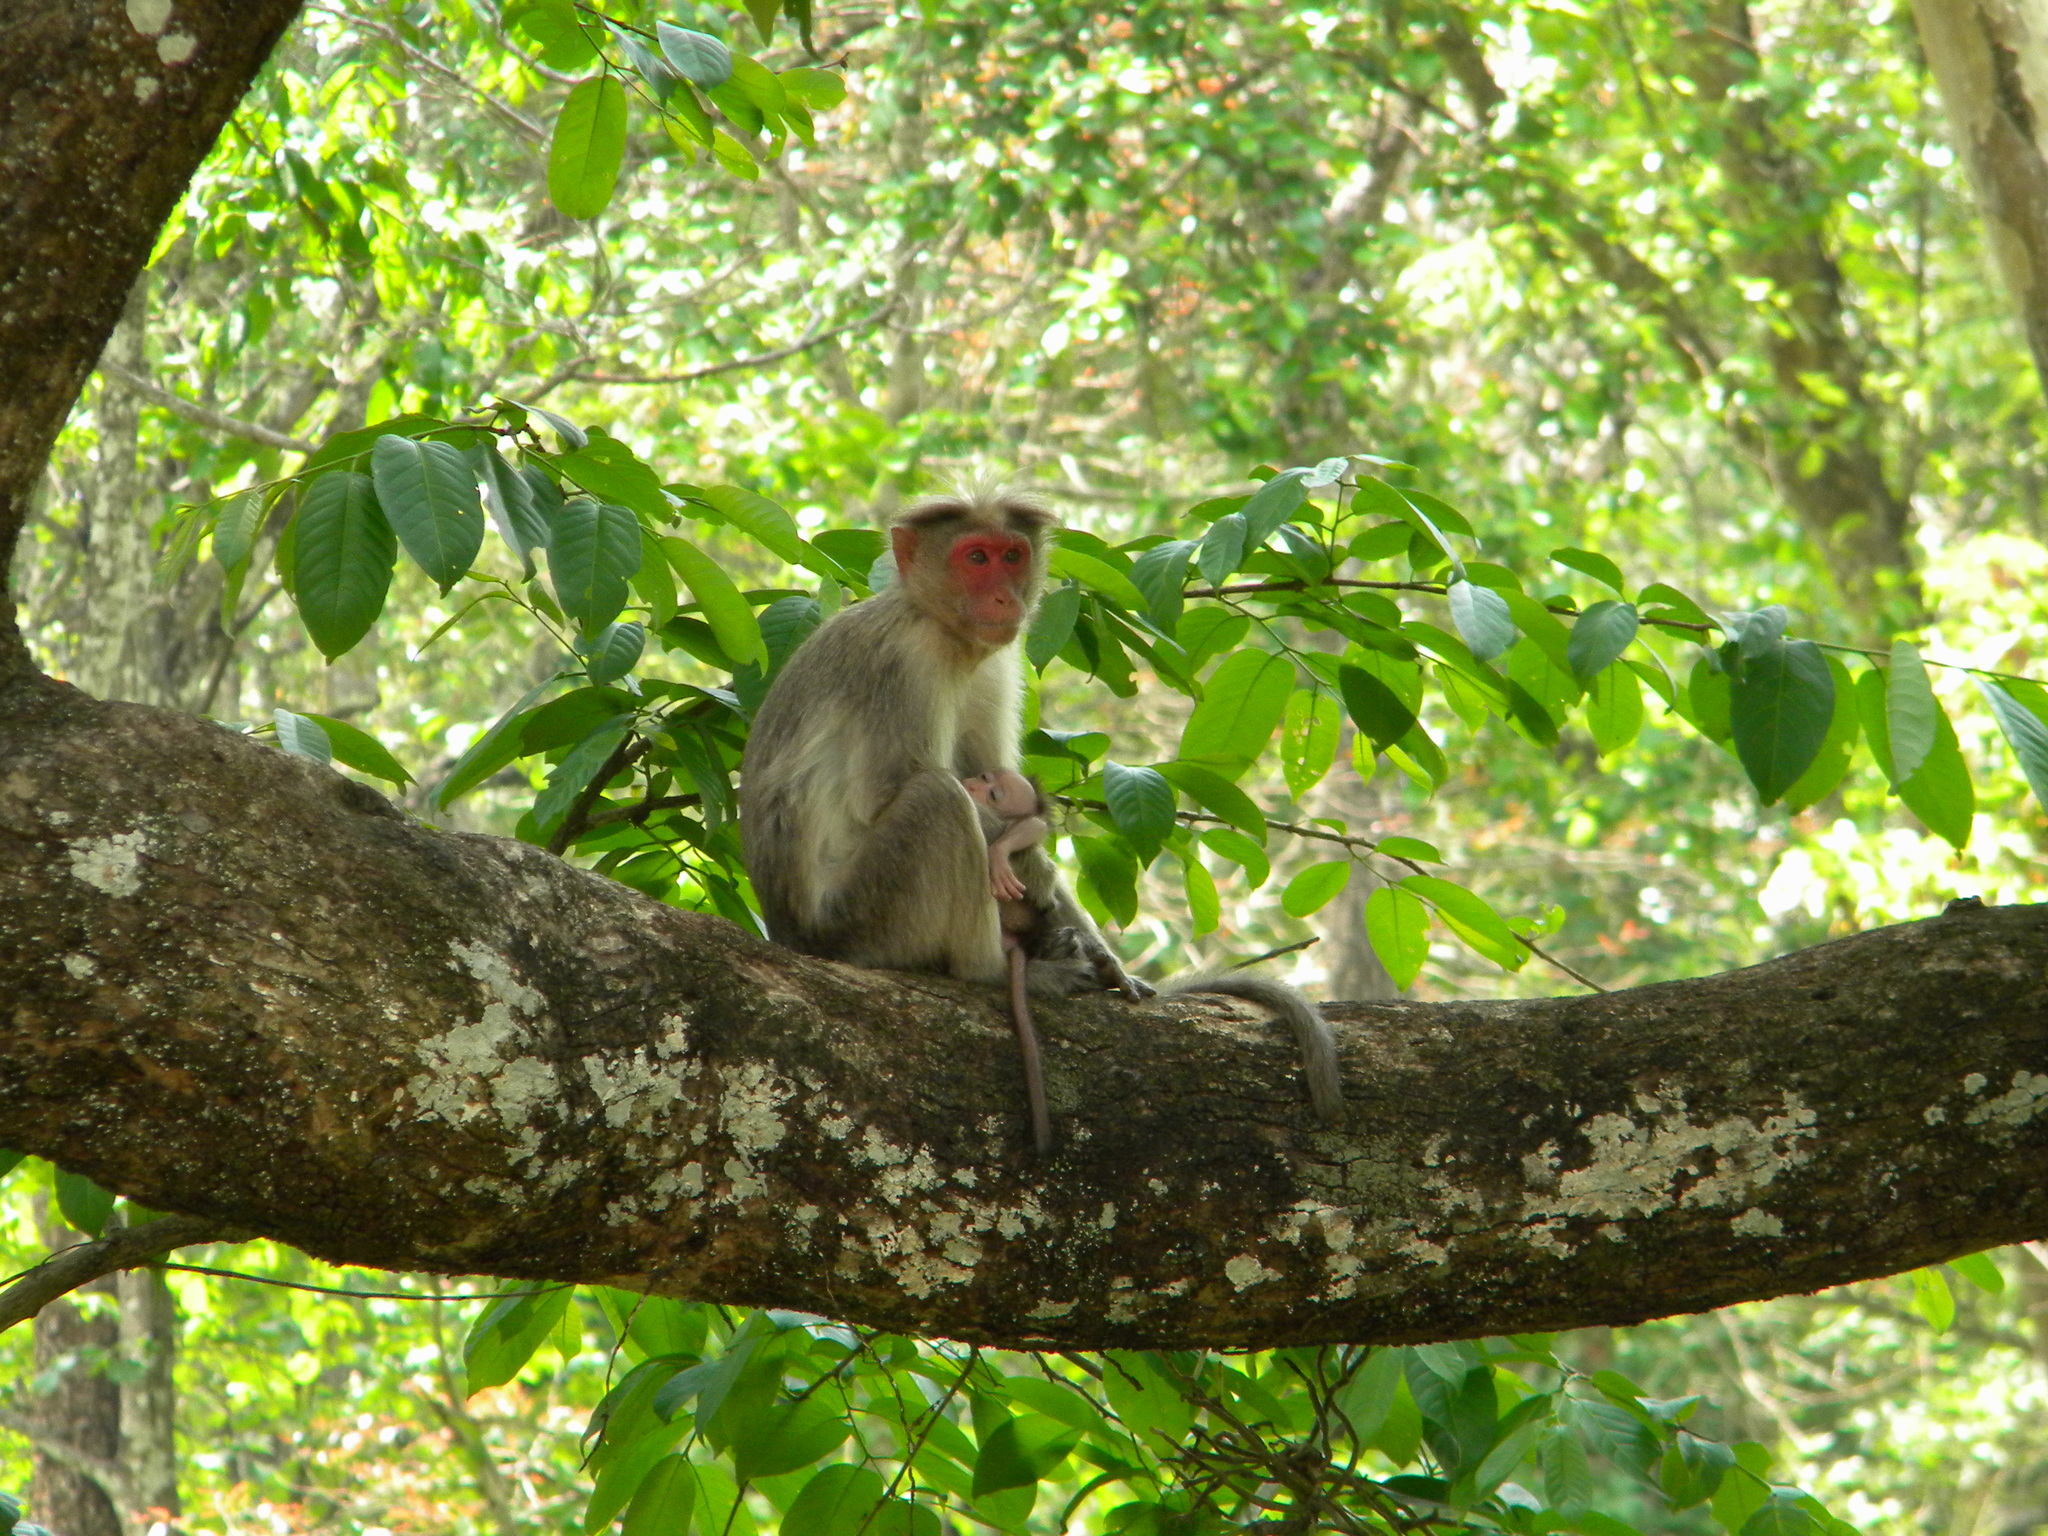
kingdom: Animalia
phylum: Chordata
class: Mammalia
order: Primates
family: Cercopithecidae
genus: Macaca
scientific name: Macaca radiata
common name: Bonnet macaque
